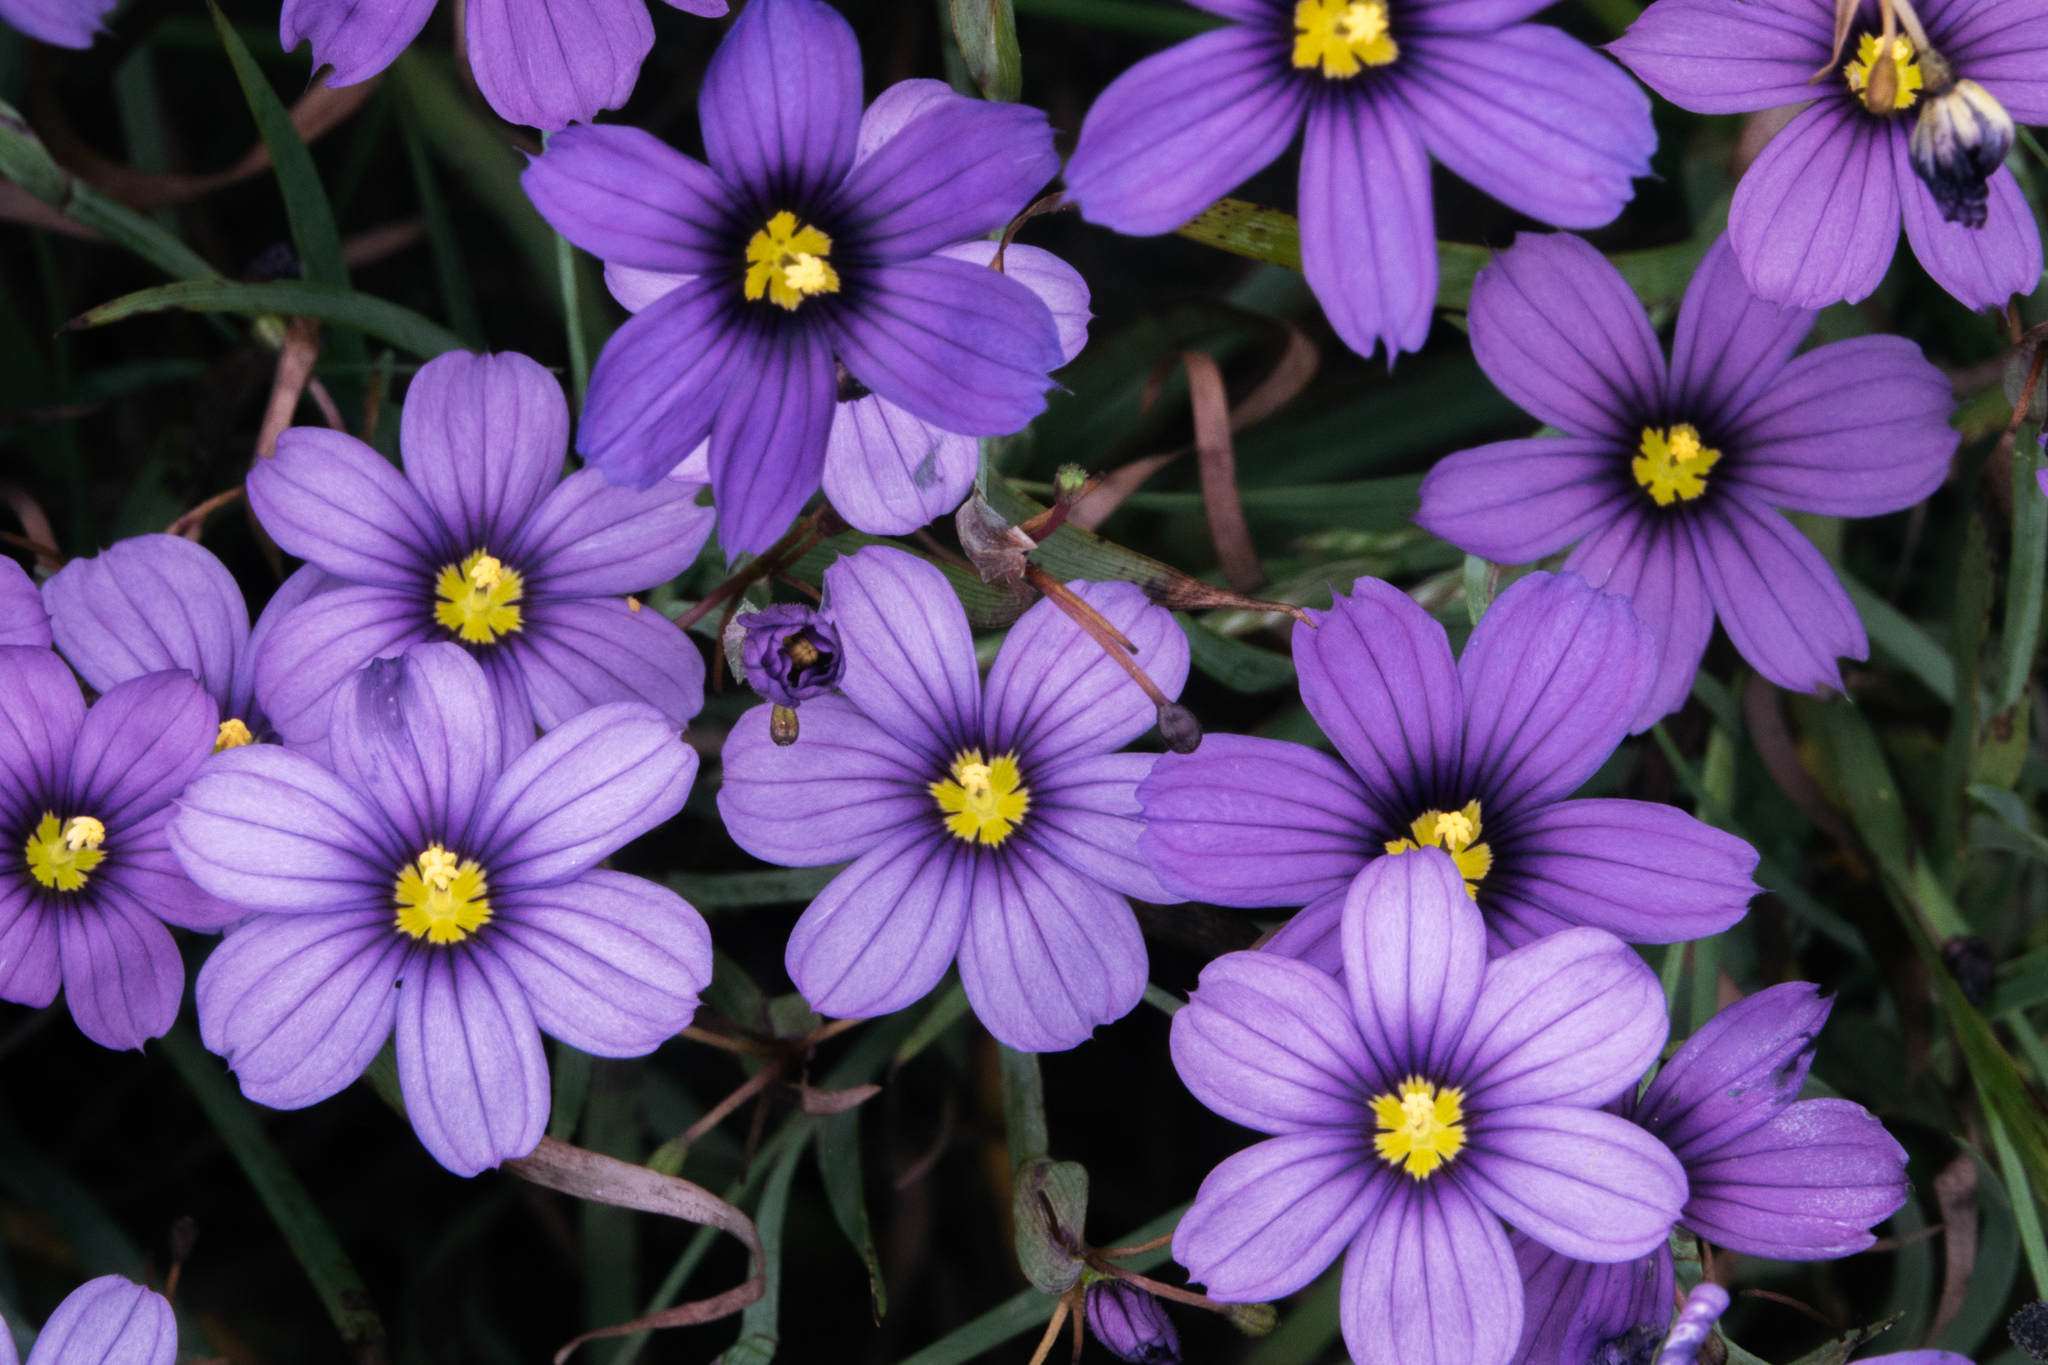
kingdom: Plantae
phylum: Tracheophyta
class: Liliopsida
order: Asparagales
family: Iridaceae
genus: Sisyrinchium
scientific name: Sisyrinchium bellum
